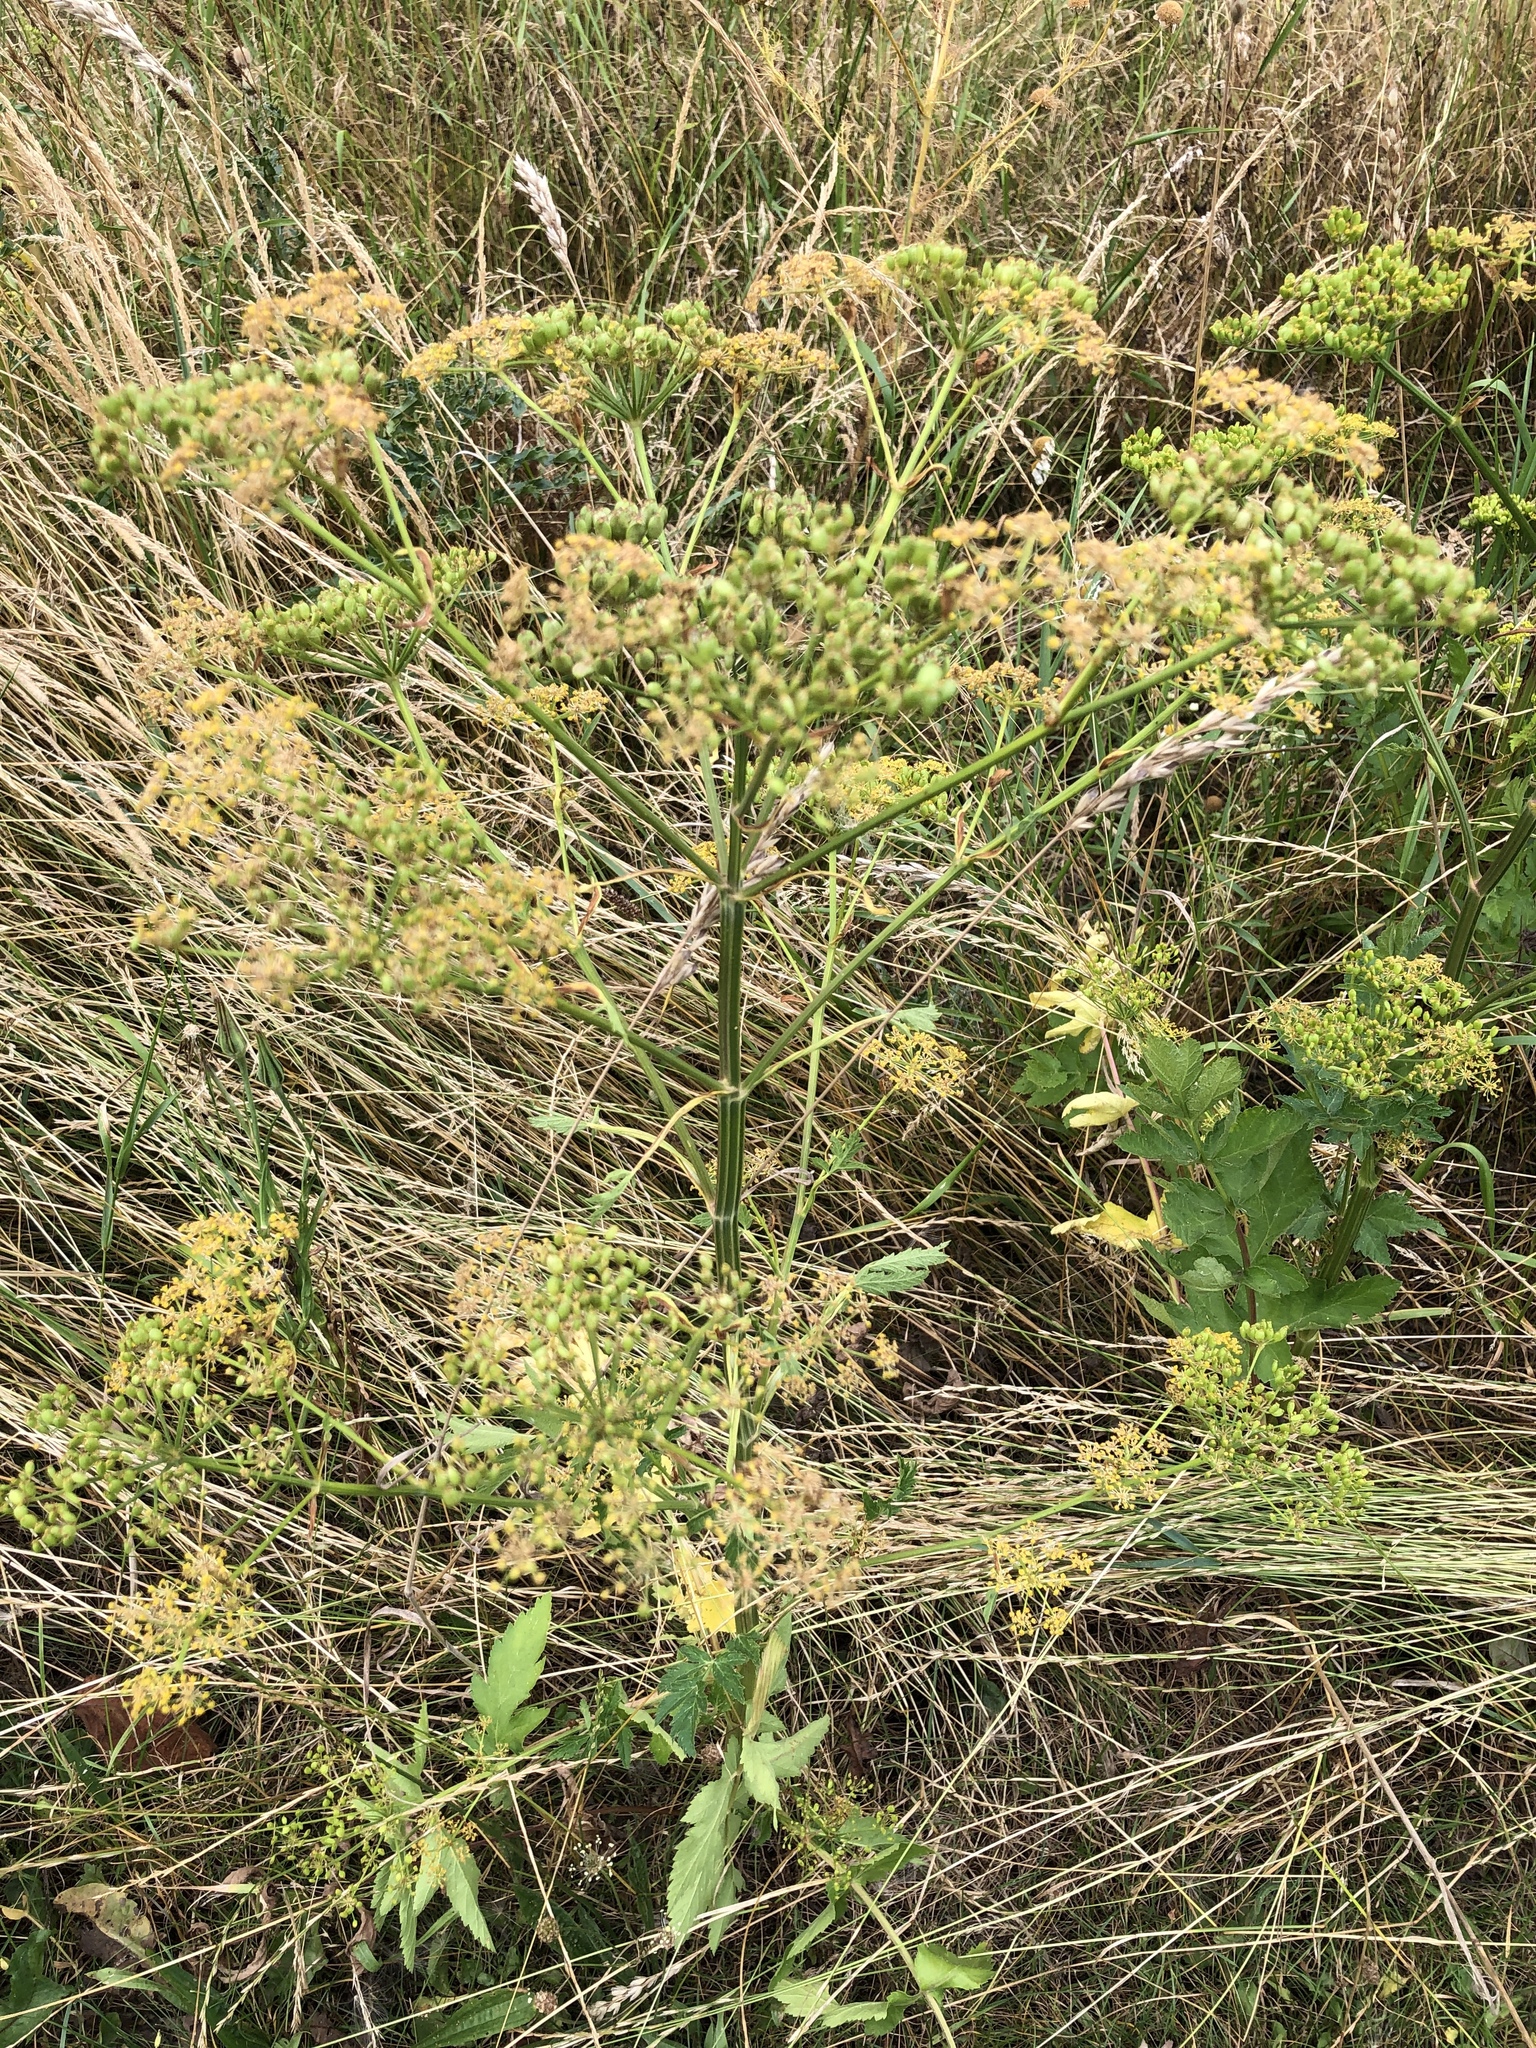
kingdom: Plantae
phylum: Tracheophyta
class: Magnoliopsida
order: Apiales
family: Apiaceae
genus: Pastinaca
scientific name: Pastinaca sativa
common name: Wild parsnip
